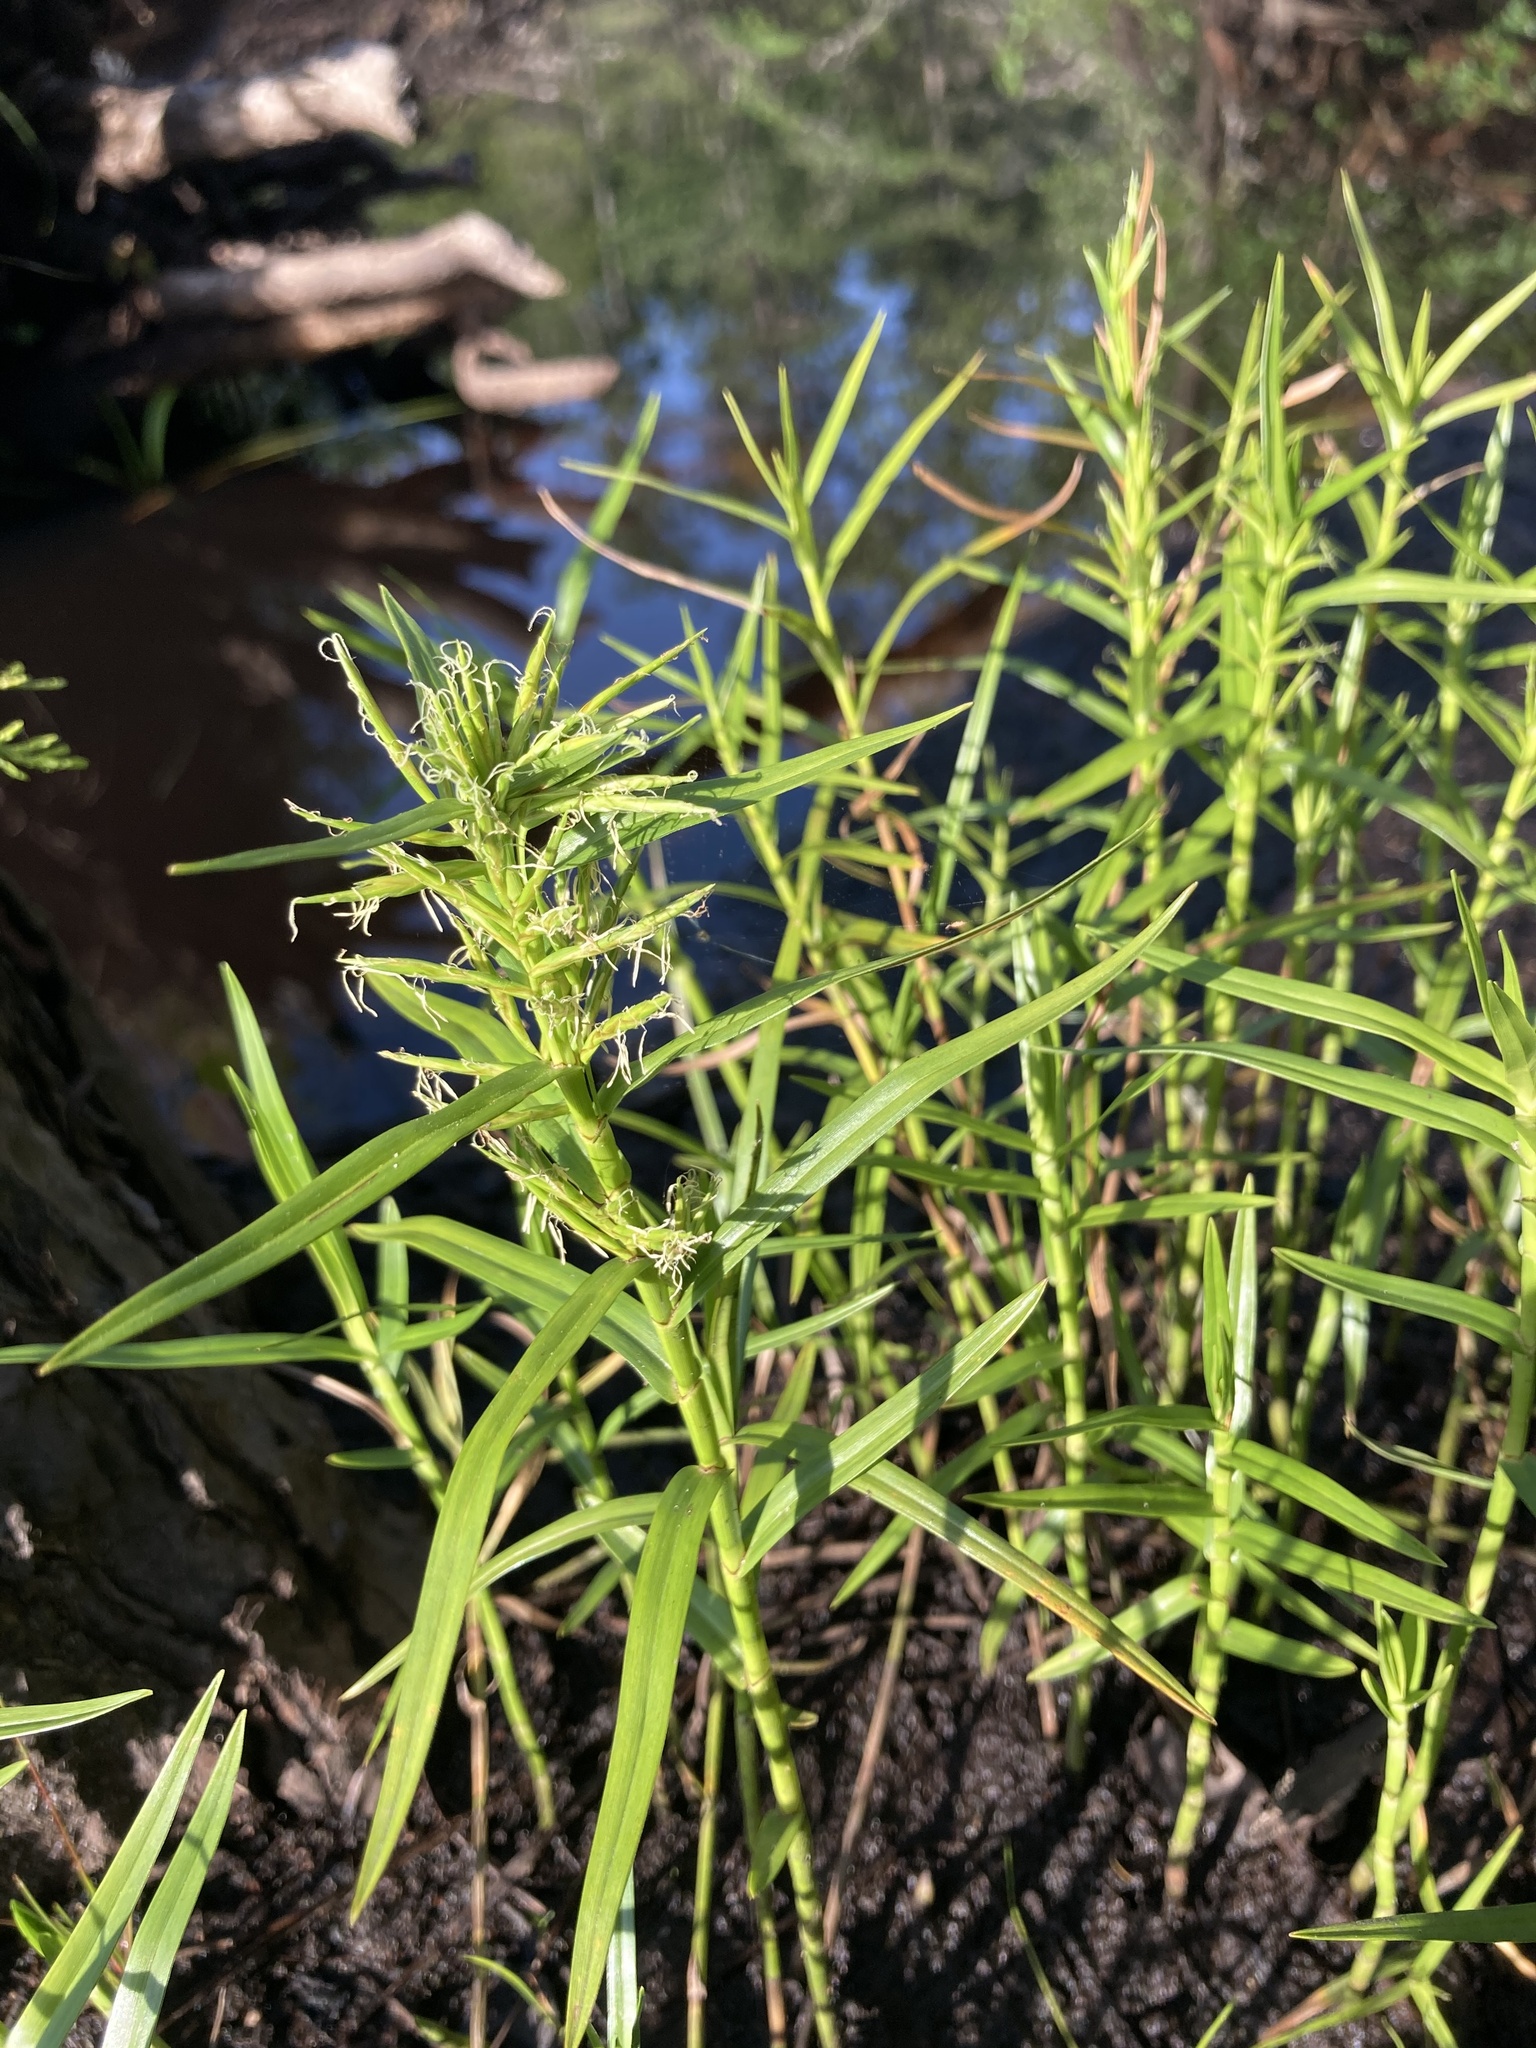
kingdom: Plantae
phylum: Tracheophyta
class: Liliopsida
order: Poales
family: Cyperaceae
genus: Dulichium
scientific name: Dulichium arundinaceum
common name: Three-way sedge
